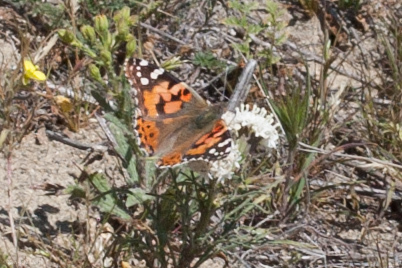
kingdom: Animalia
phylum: Arthropoda
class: Insecta
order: Lepidoptera
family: Nymphalidae
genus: Vanessa
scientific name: Vanessa cardui
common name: Painted lady
